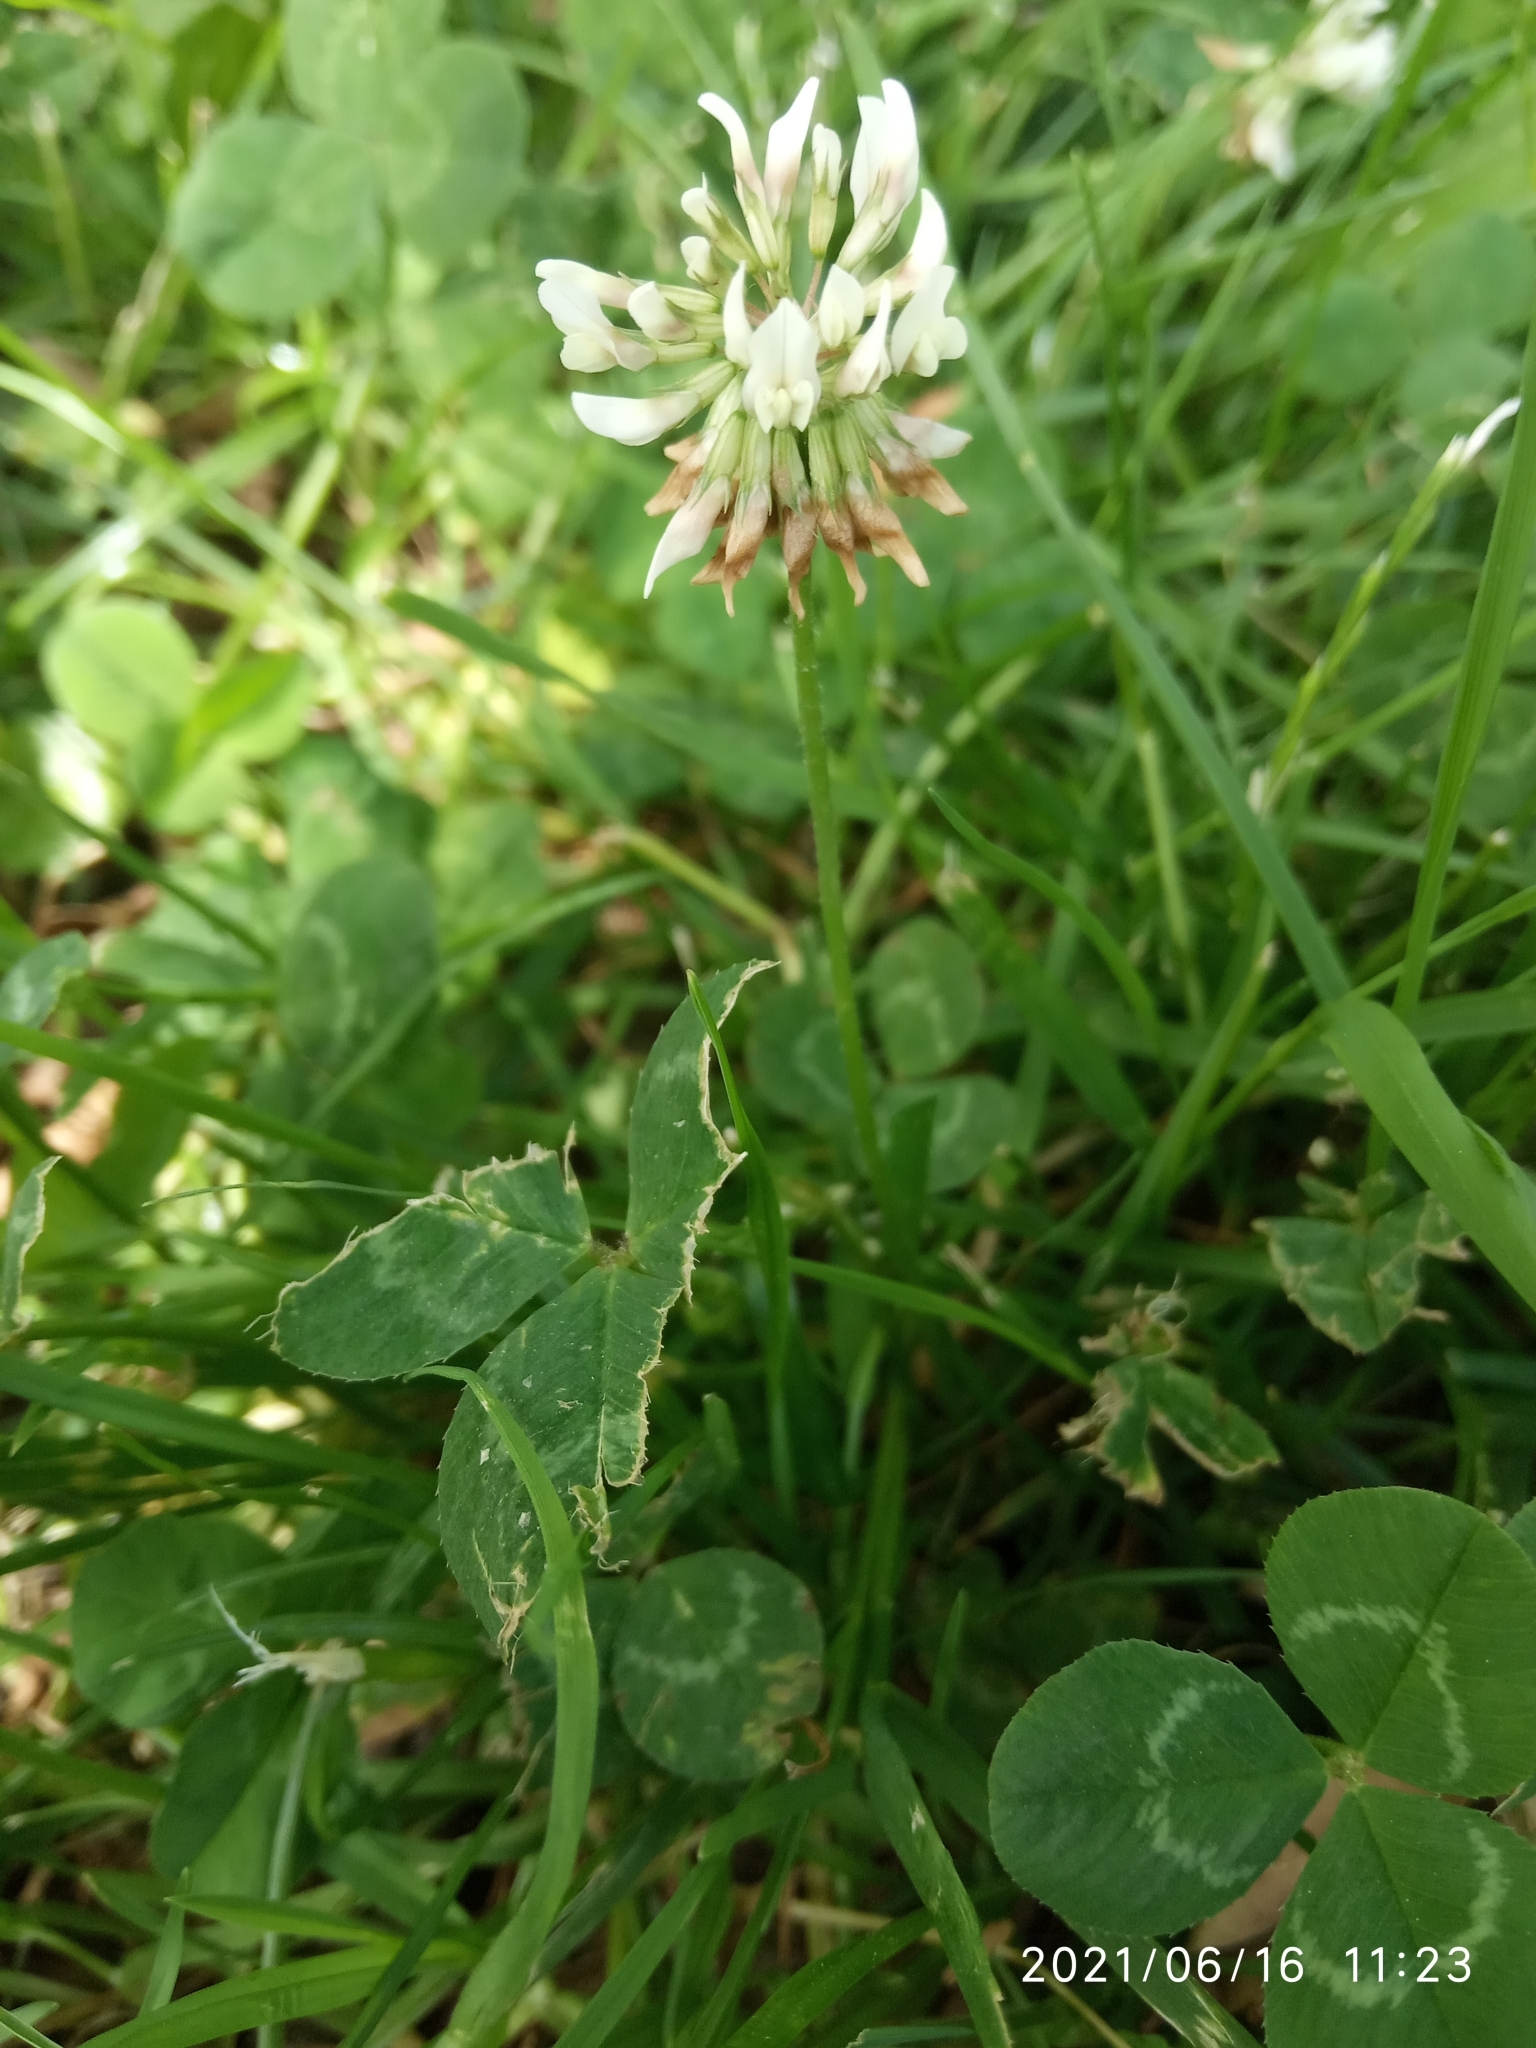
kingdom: Plantae
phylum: Tracheophyta
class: Magnoliopsida
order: Fabales
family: Fabaceae
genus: Trifolium
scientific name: Trifolium repens
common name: White clover
